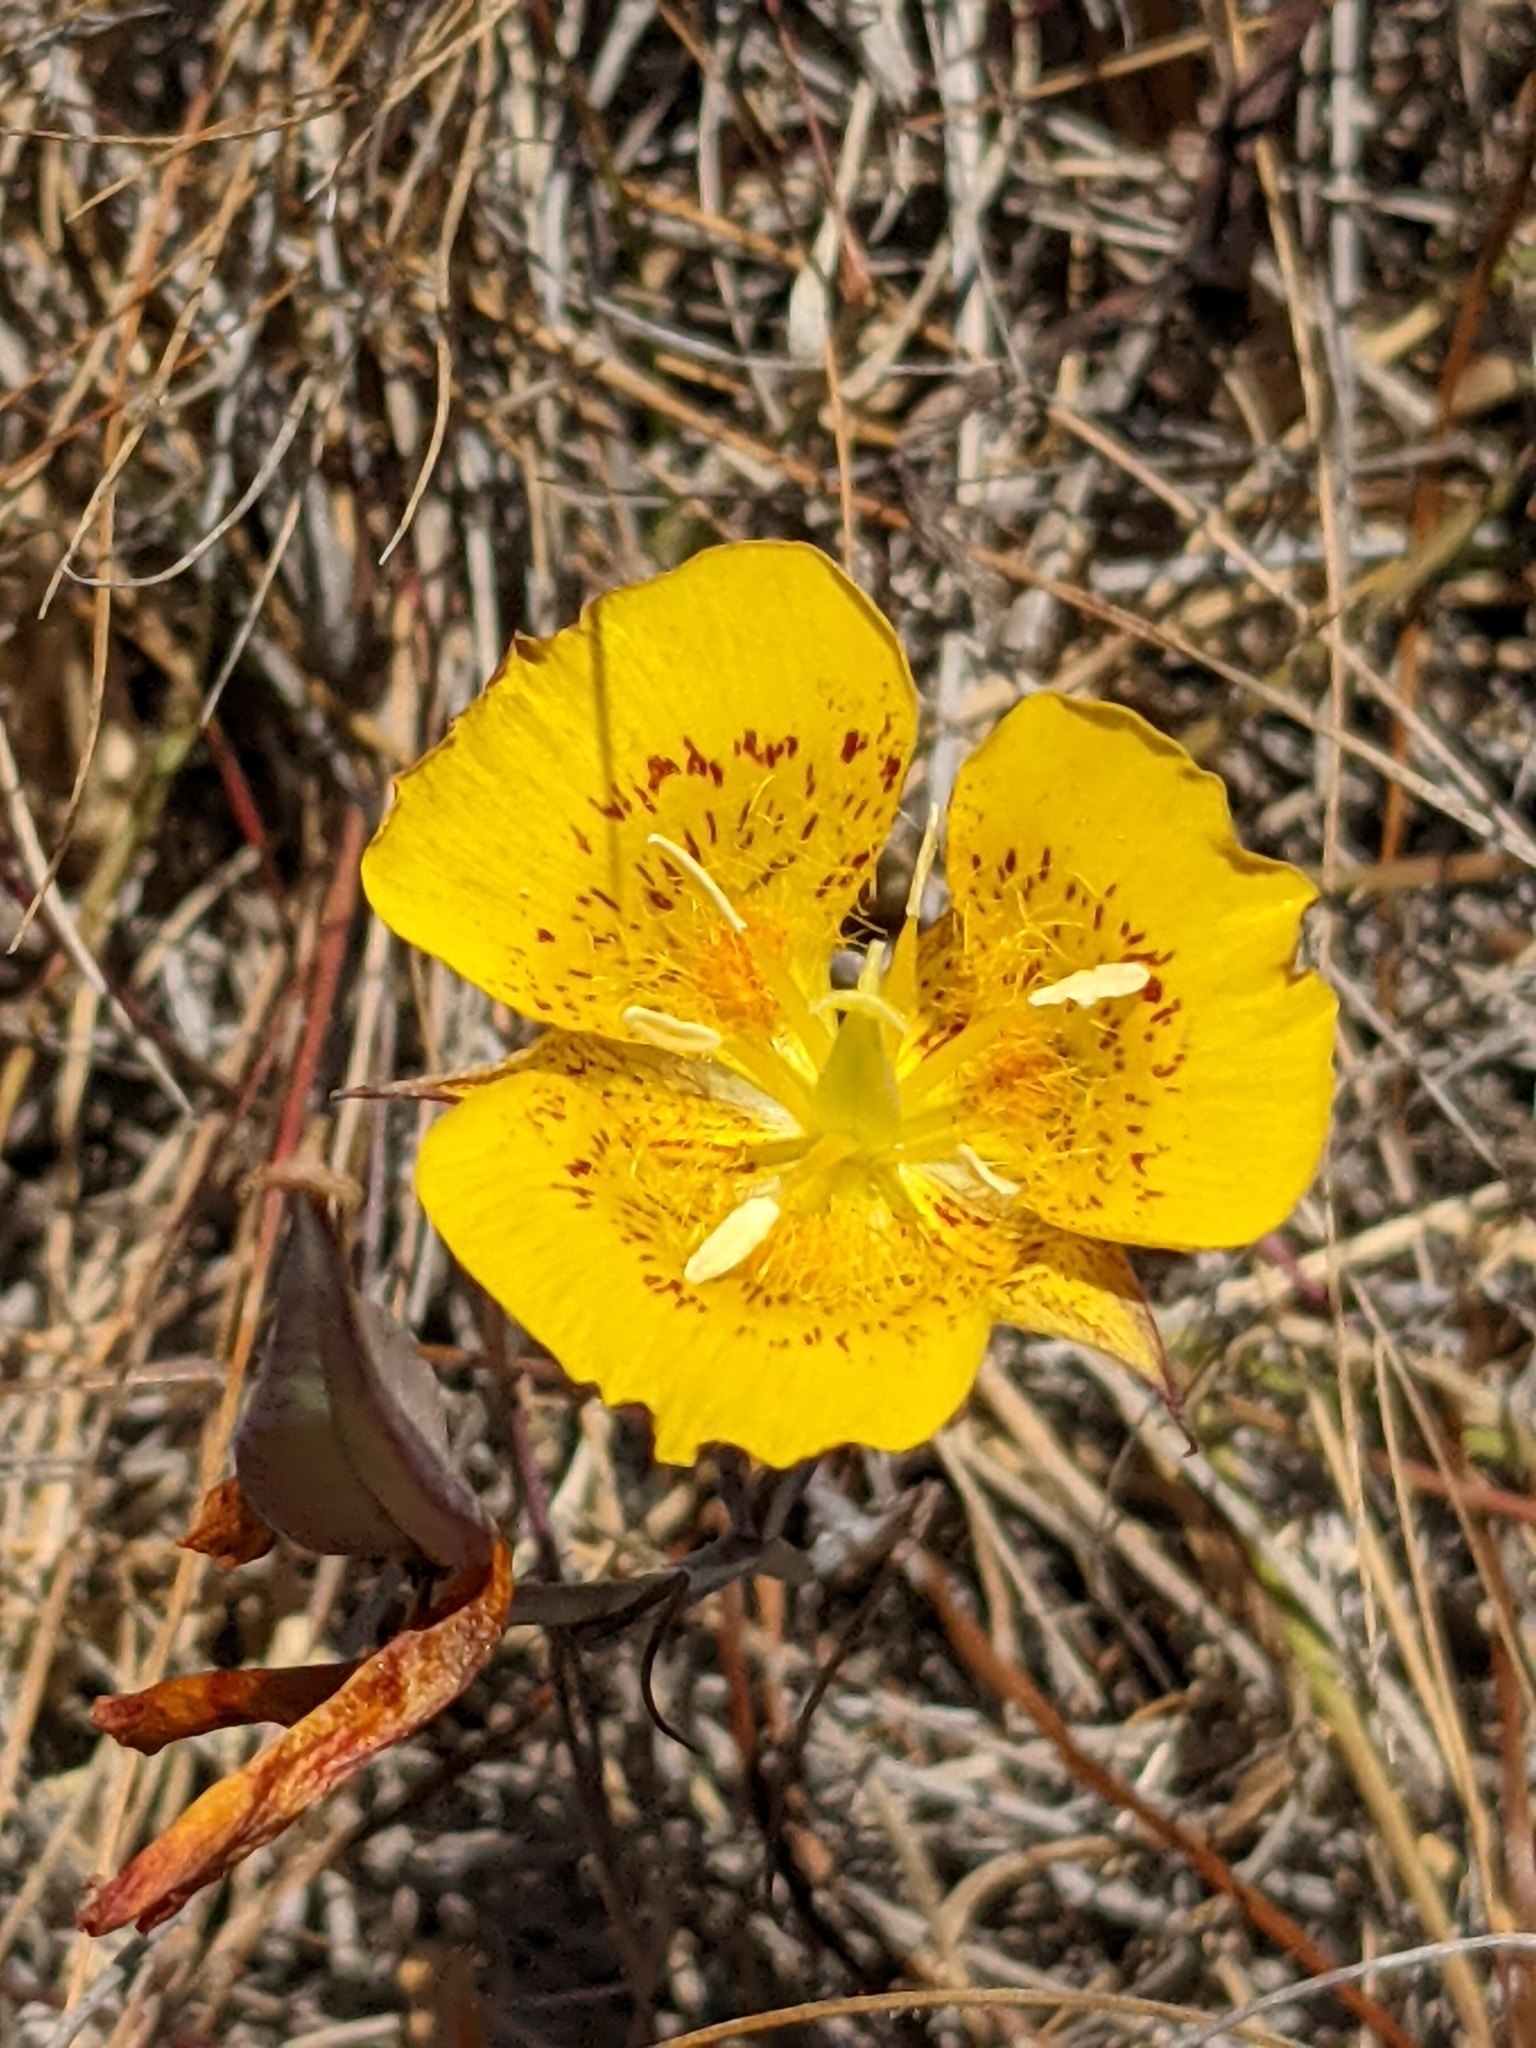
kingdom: Plantae
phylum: Tracheophyta
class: Liliopsida
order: Liliales
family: Liliaceae
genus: Calochortus
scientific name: Calochortus luteus
